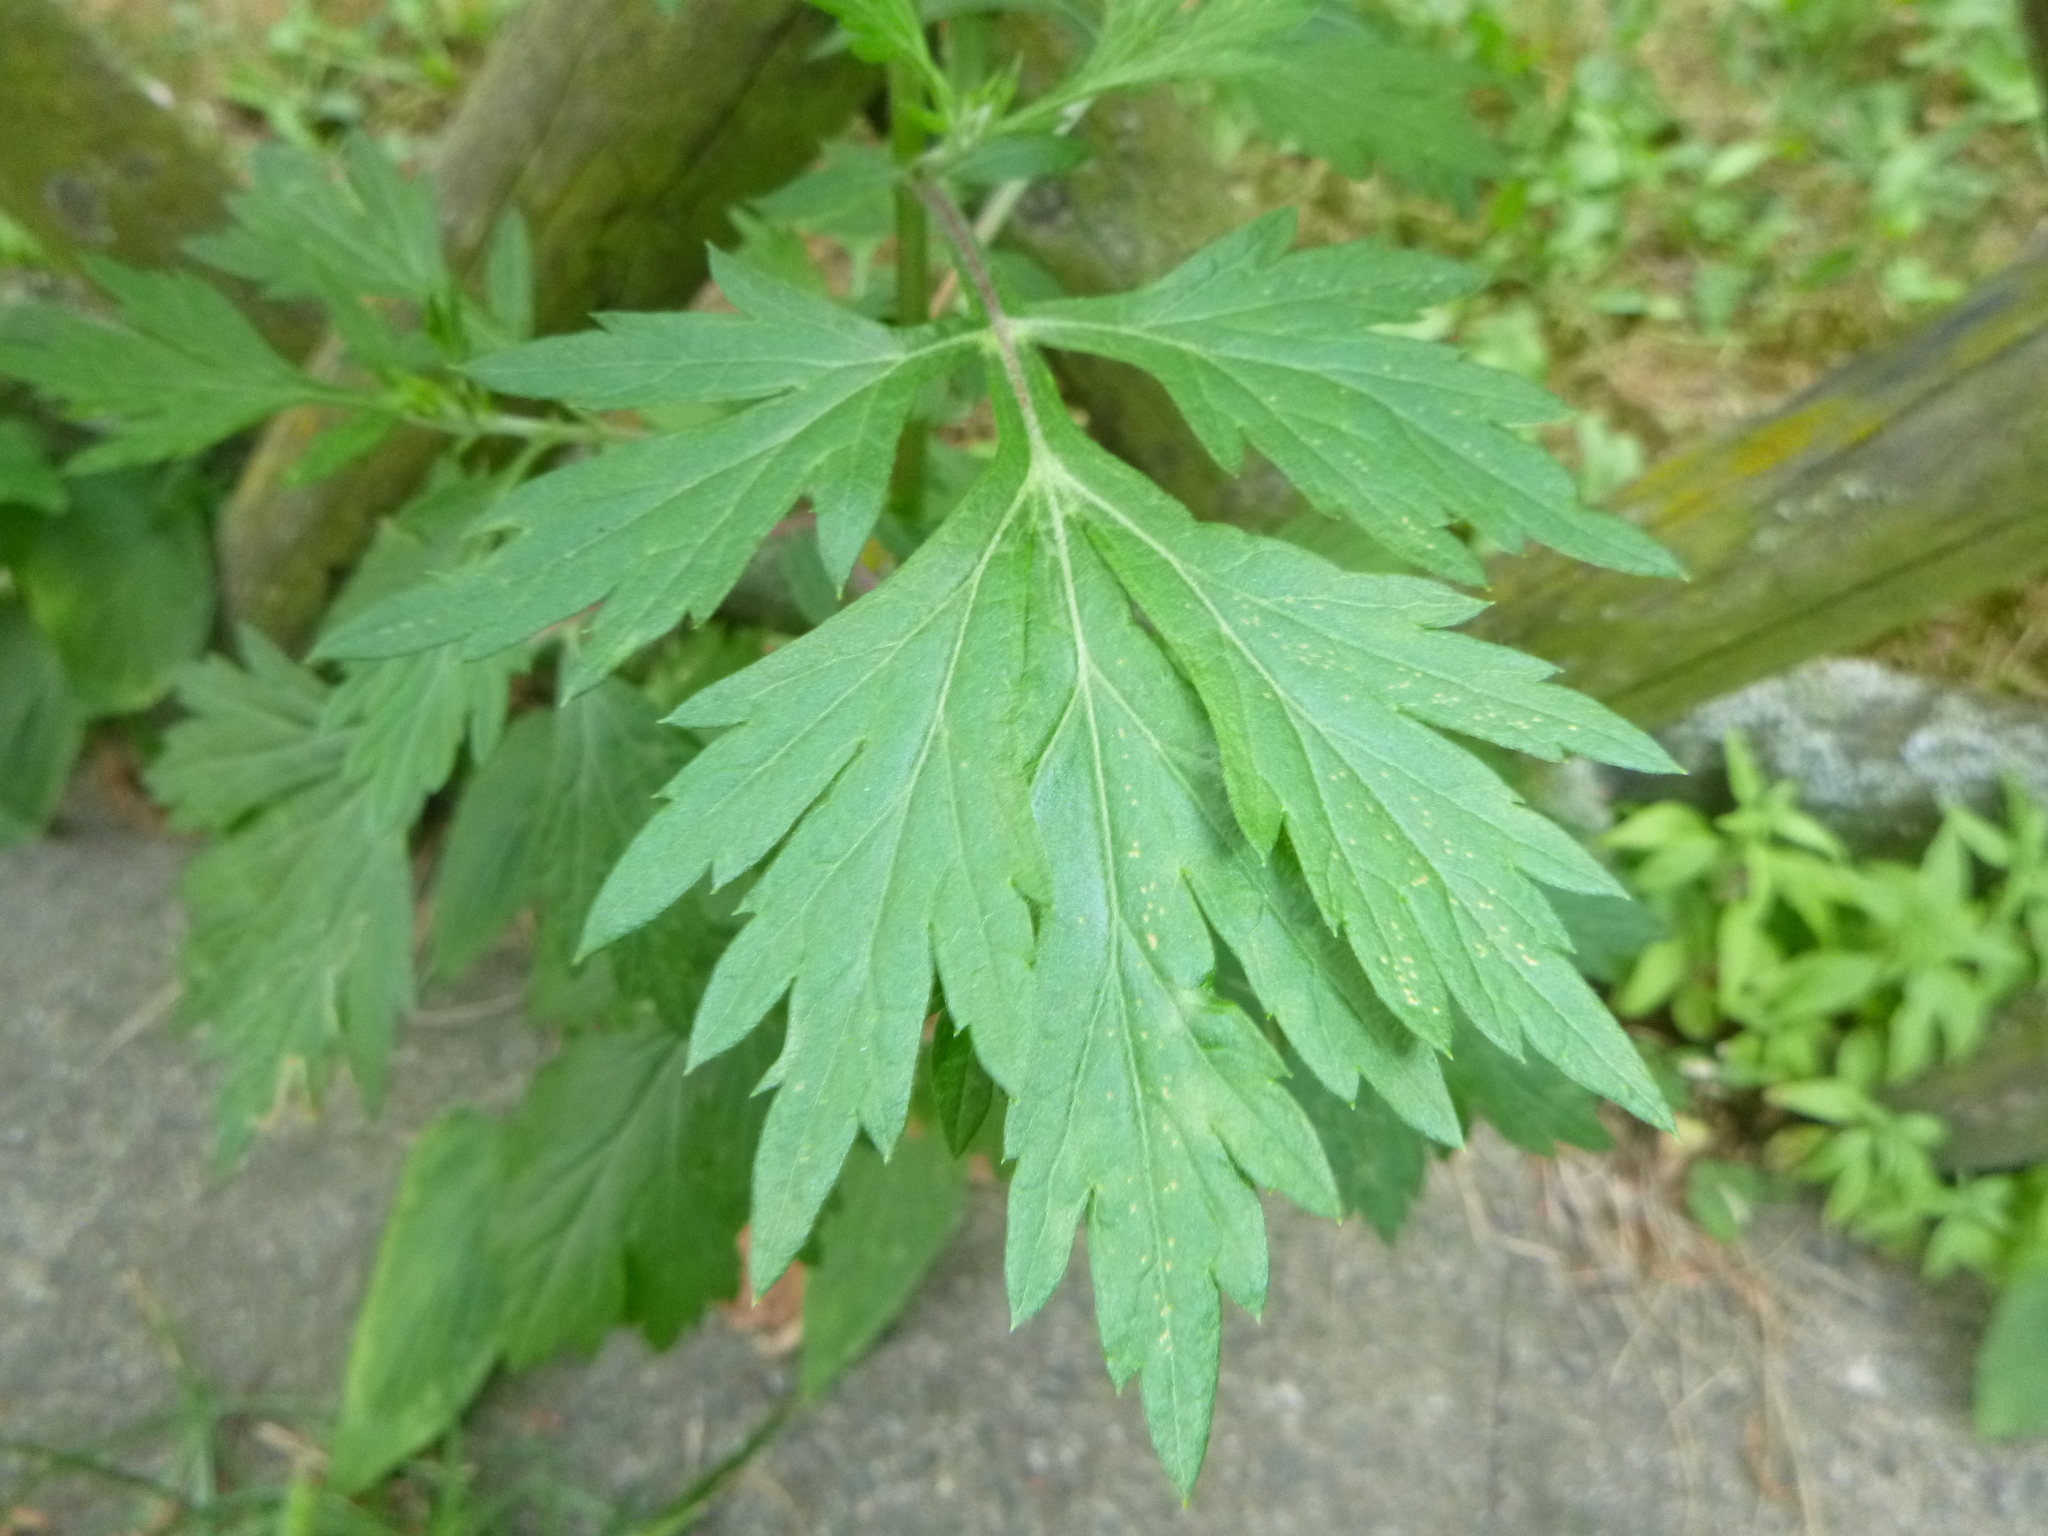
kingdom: Plantae
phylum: Tracheophyta
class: Magnoliopsida
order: Asterales
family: Asteraceae
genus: Artemisia
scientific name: Artemisia vulgaris
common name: Mugwort
